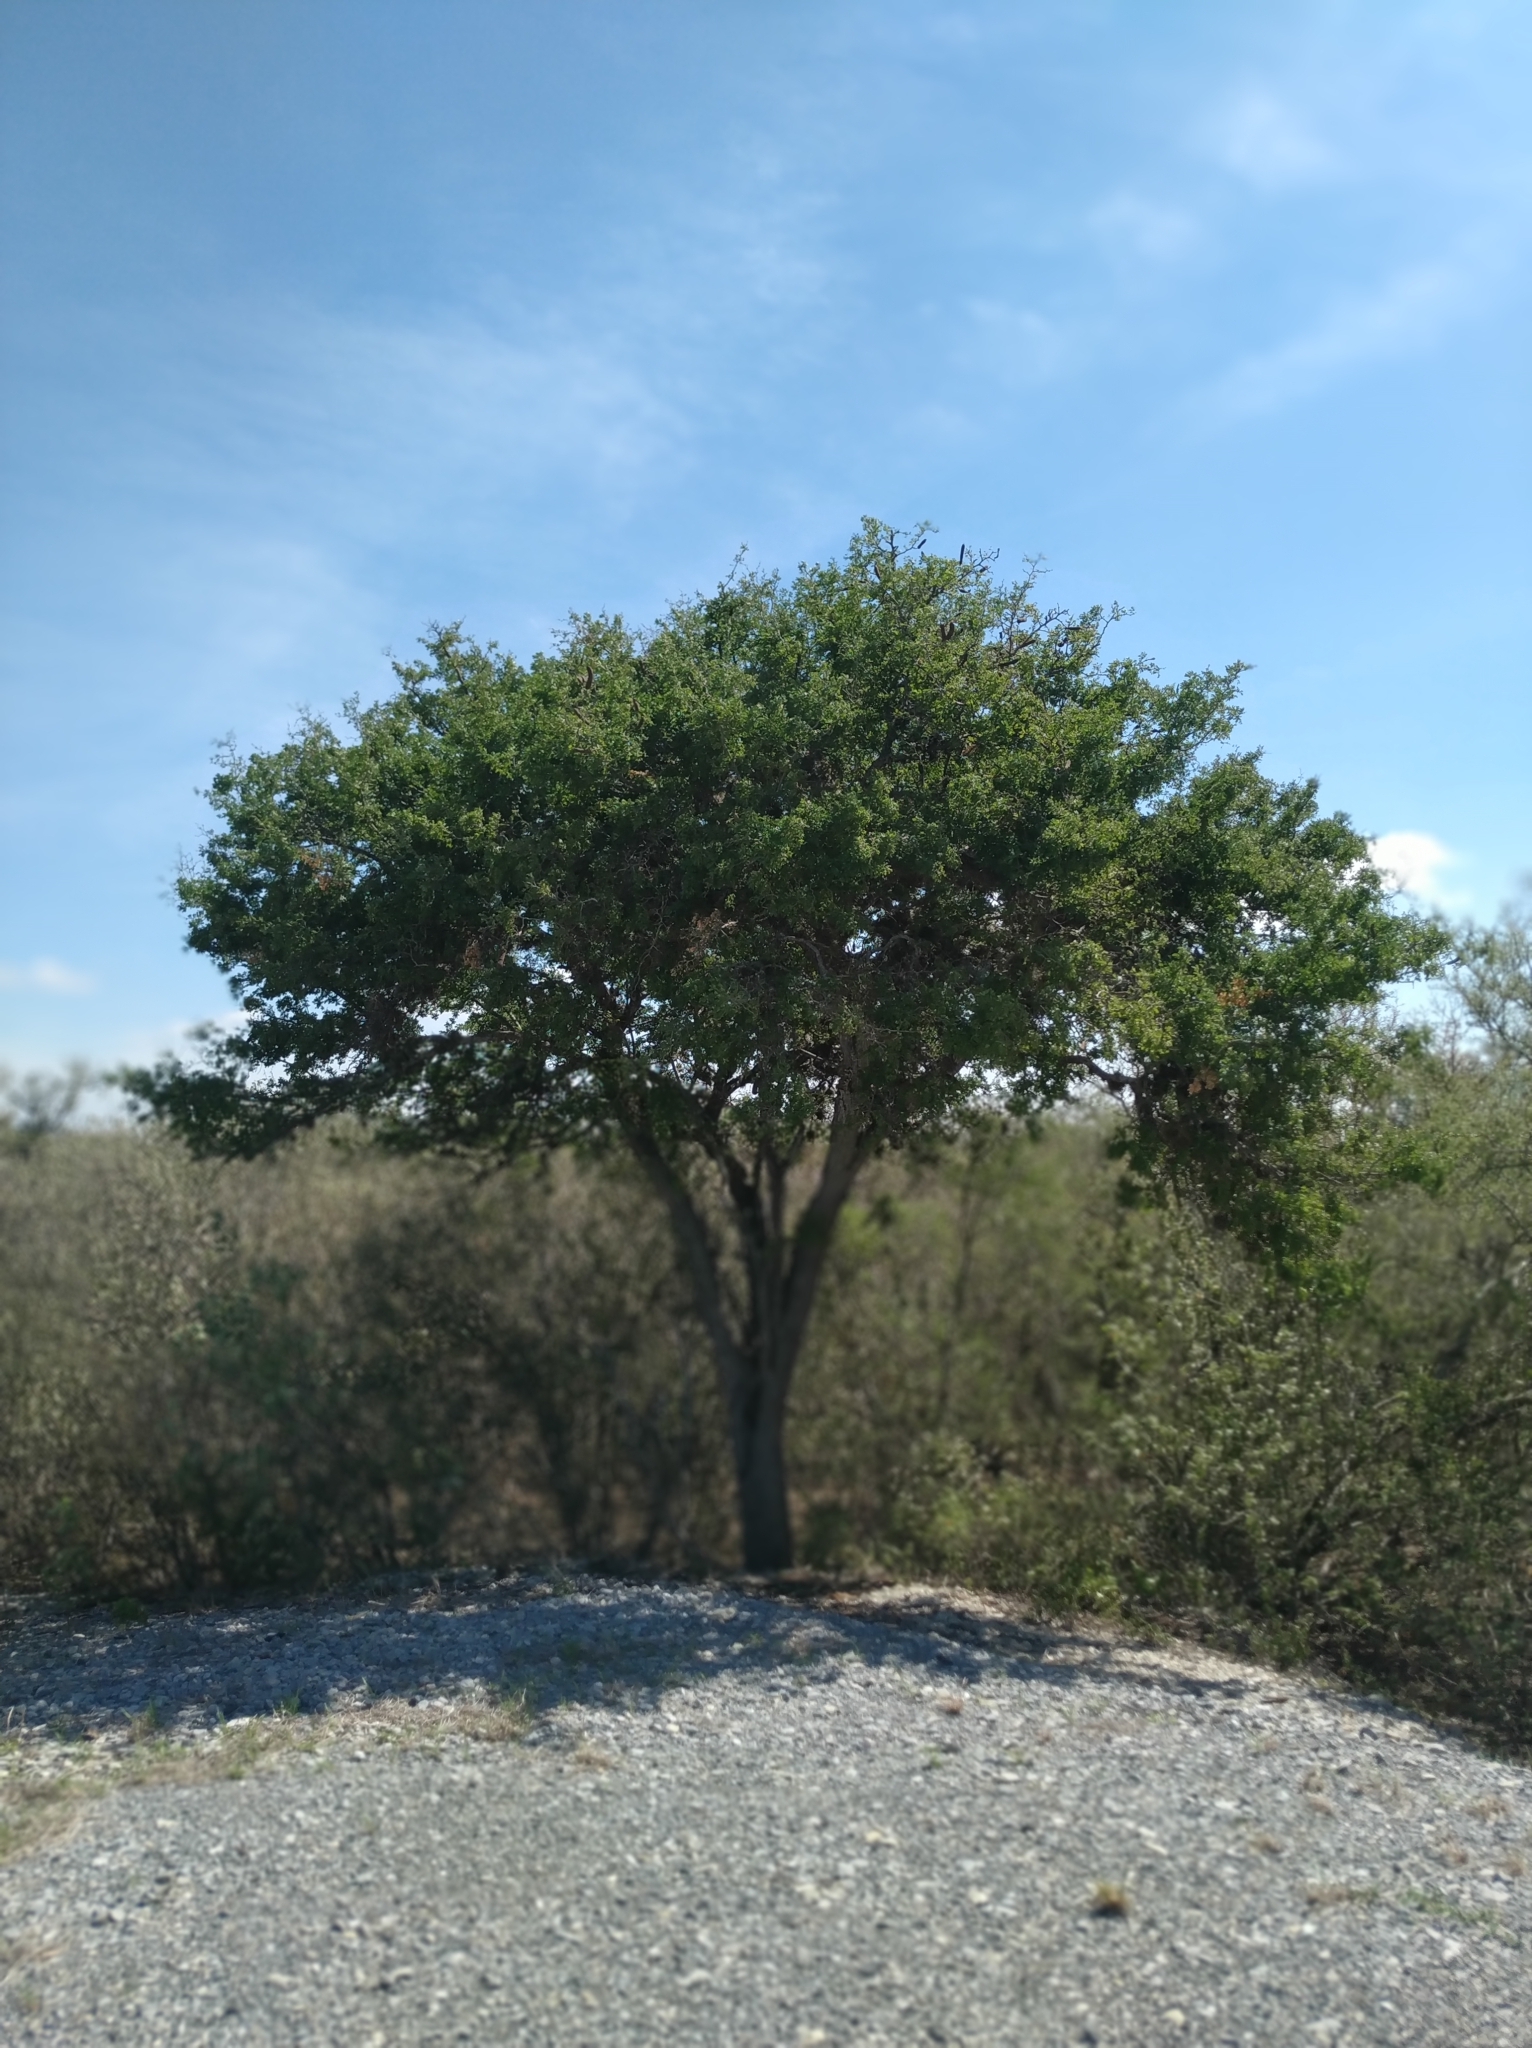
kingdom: Plantae
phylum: Tracheophyta
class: Magnoliopsida
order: Fabales
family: Fabaceae
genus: Ebenopsis
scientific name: Ebenopsis ebano
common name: Ebony blackbead
